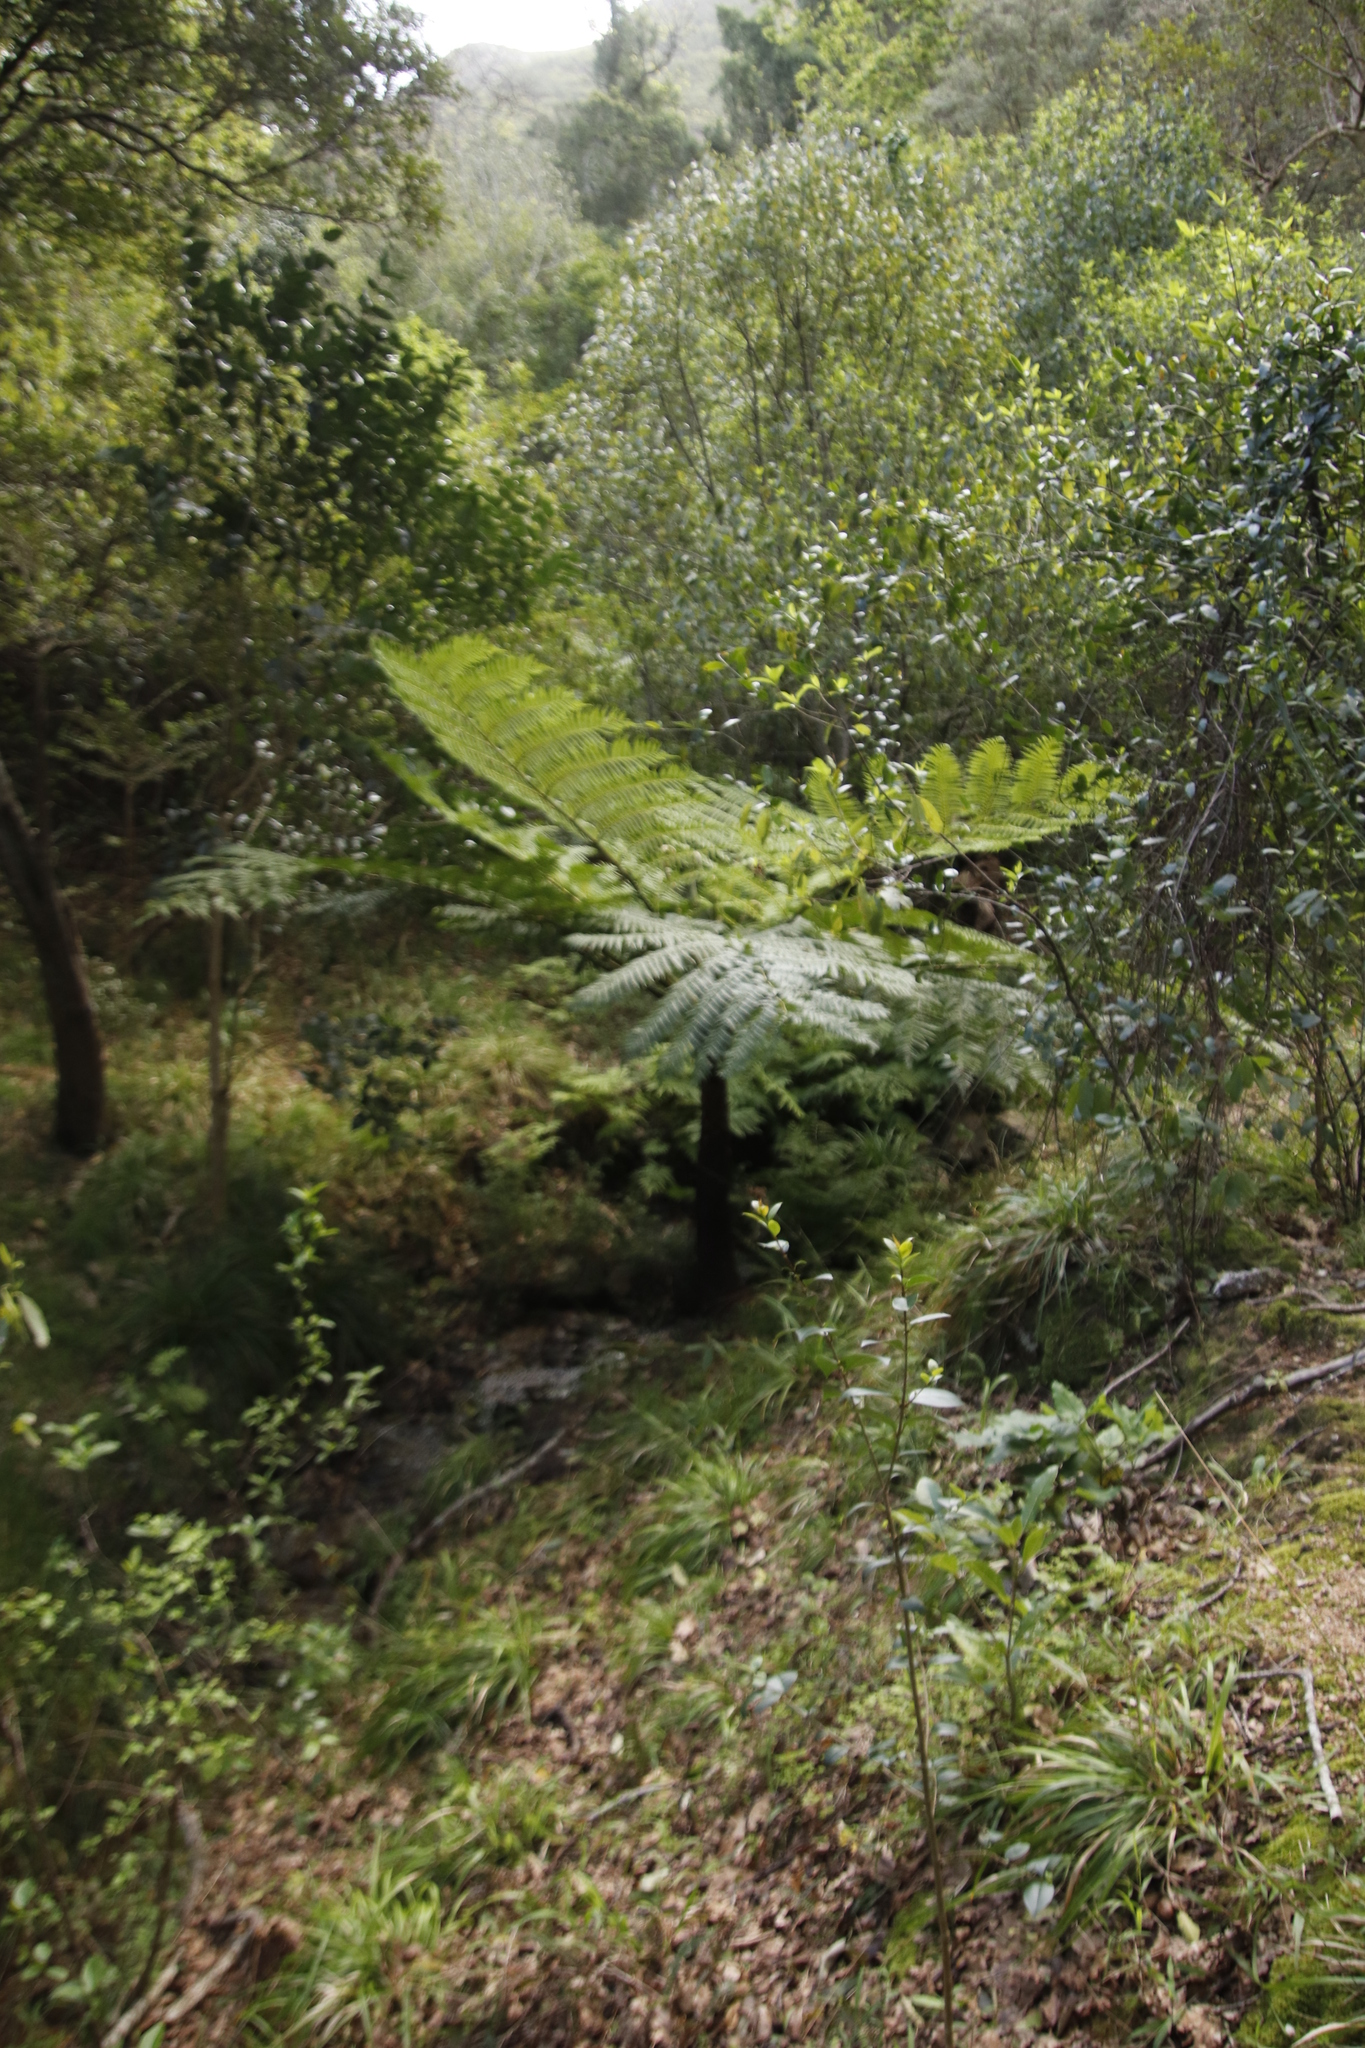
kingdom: Plantae
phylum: Tracheophyta
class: Polypodiopsida
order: Cyatheales
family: Cyatheaceae
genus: Sphaeropteris
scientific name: Sphaeropteris cooperi
